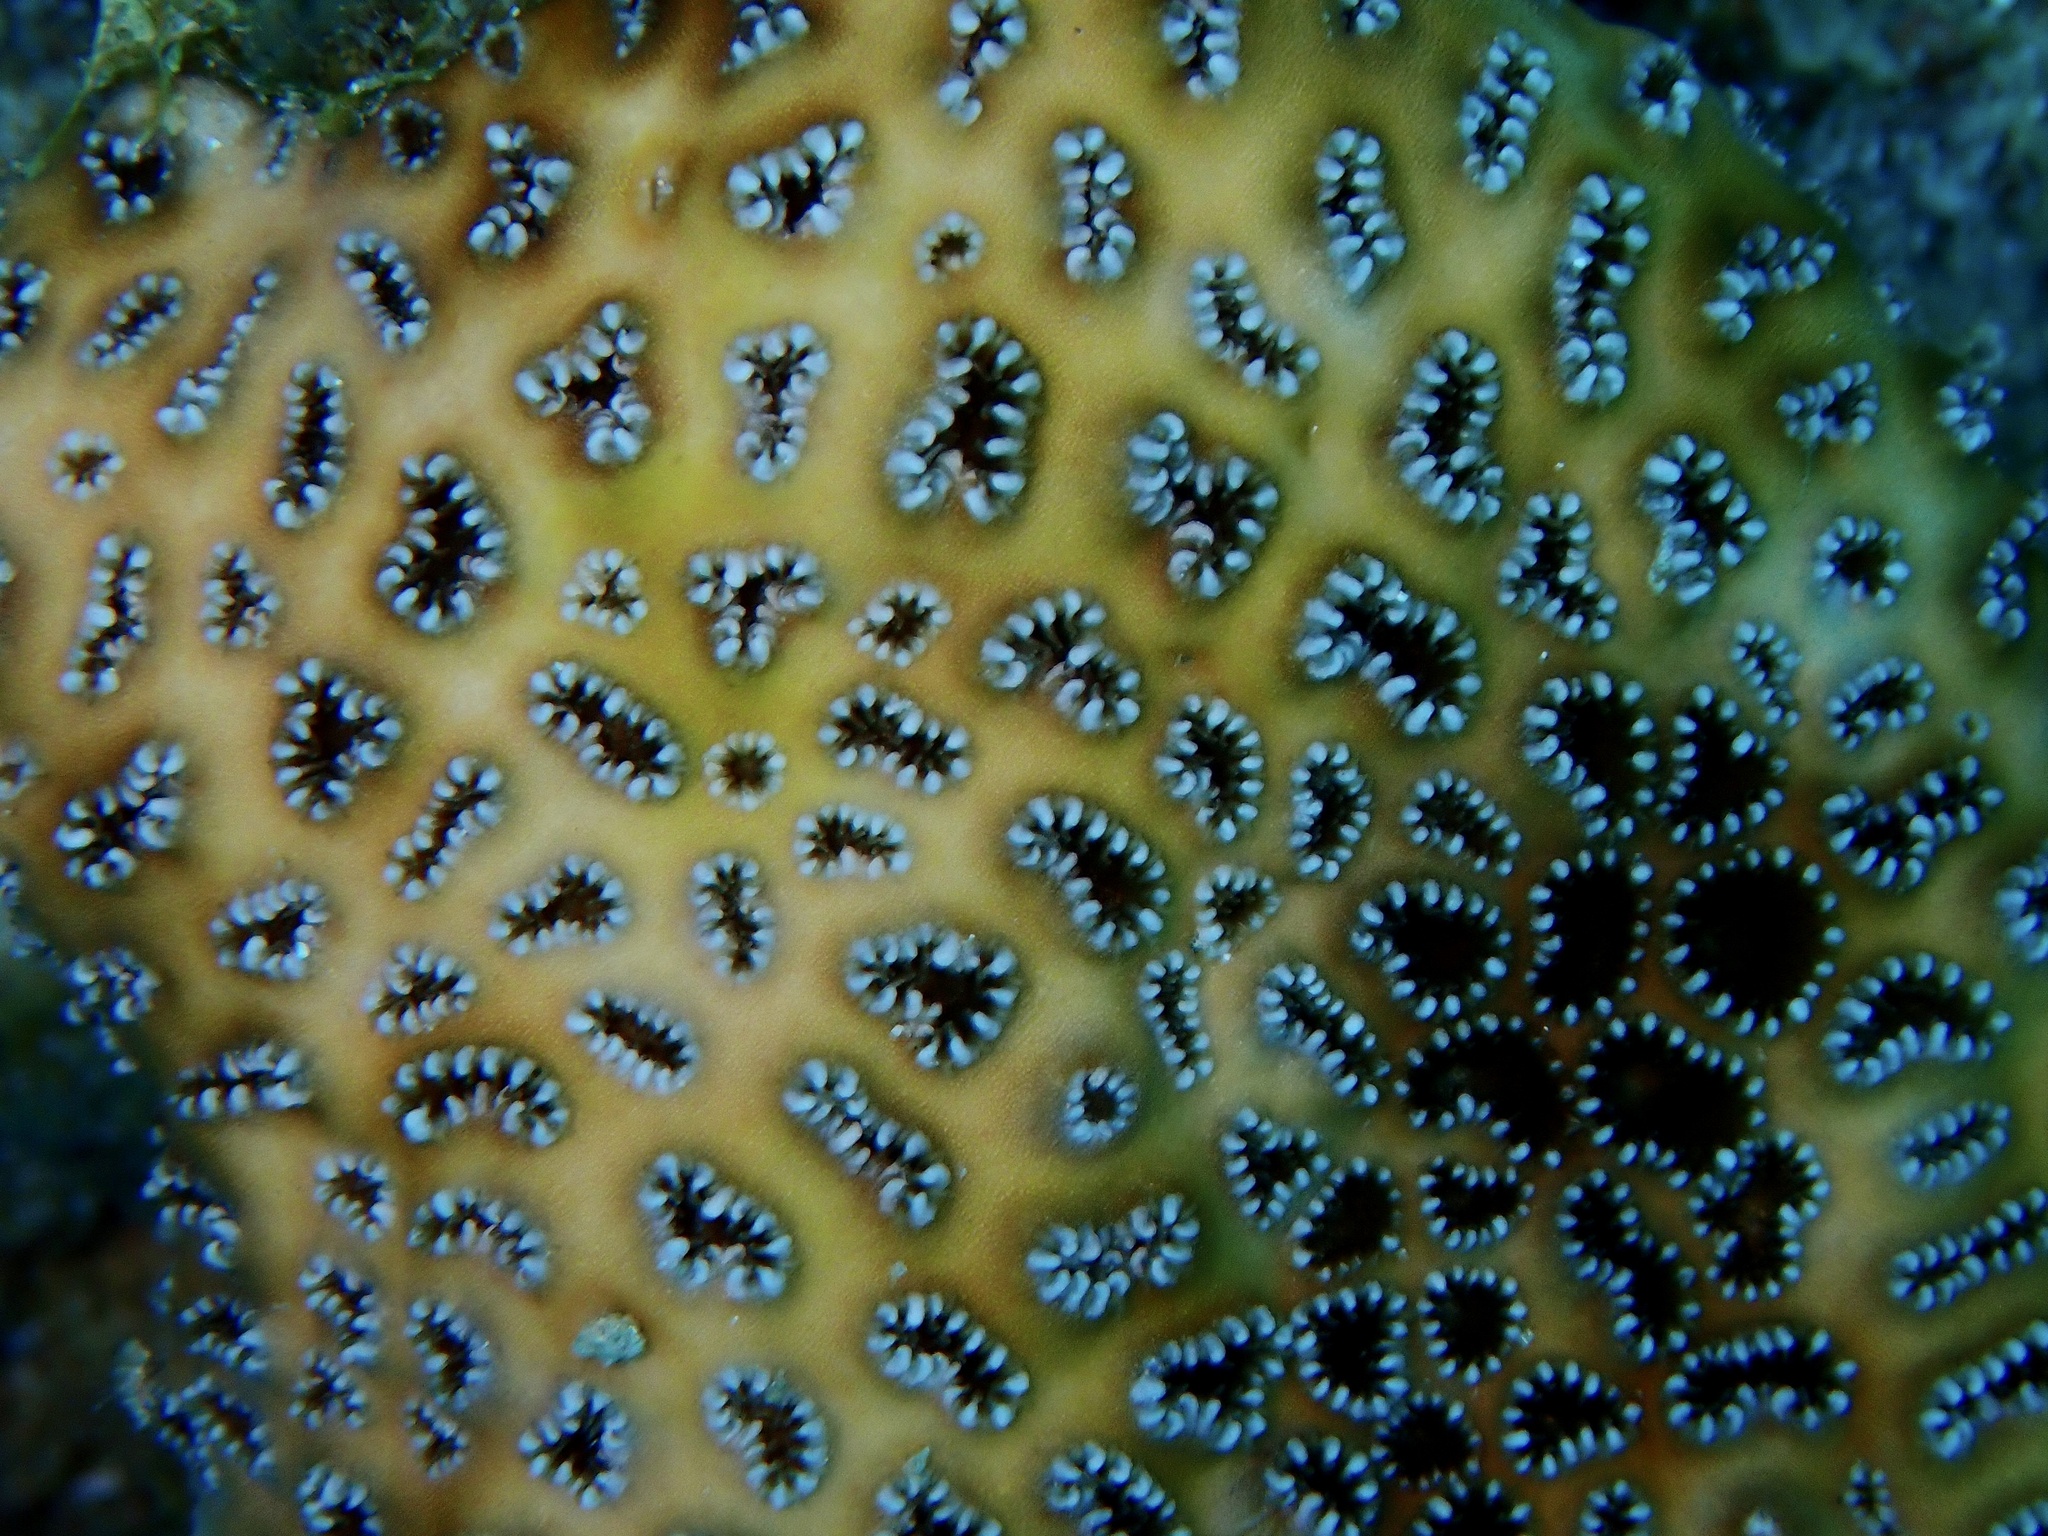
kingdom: Animalia
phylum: Cnidaria
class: Anthozoa
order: Zoantharia
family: Sphenopidae
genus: Palythoa
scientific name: Palythoa tuberculosa
